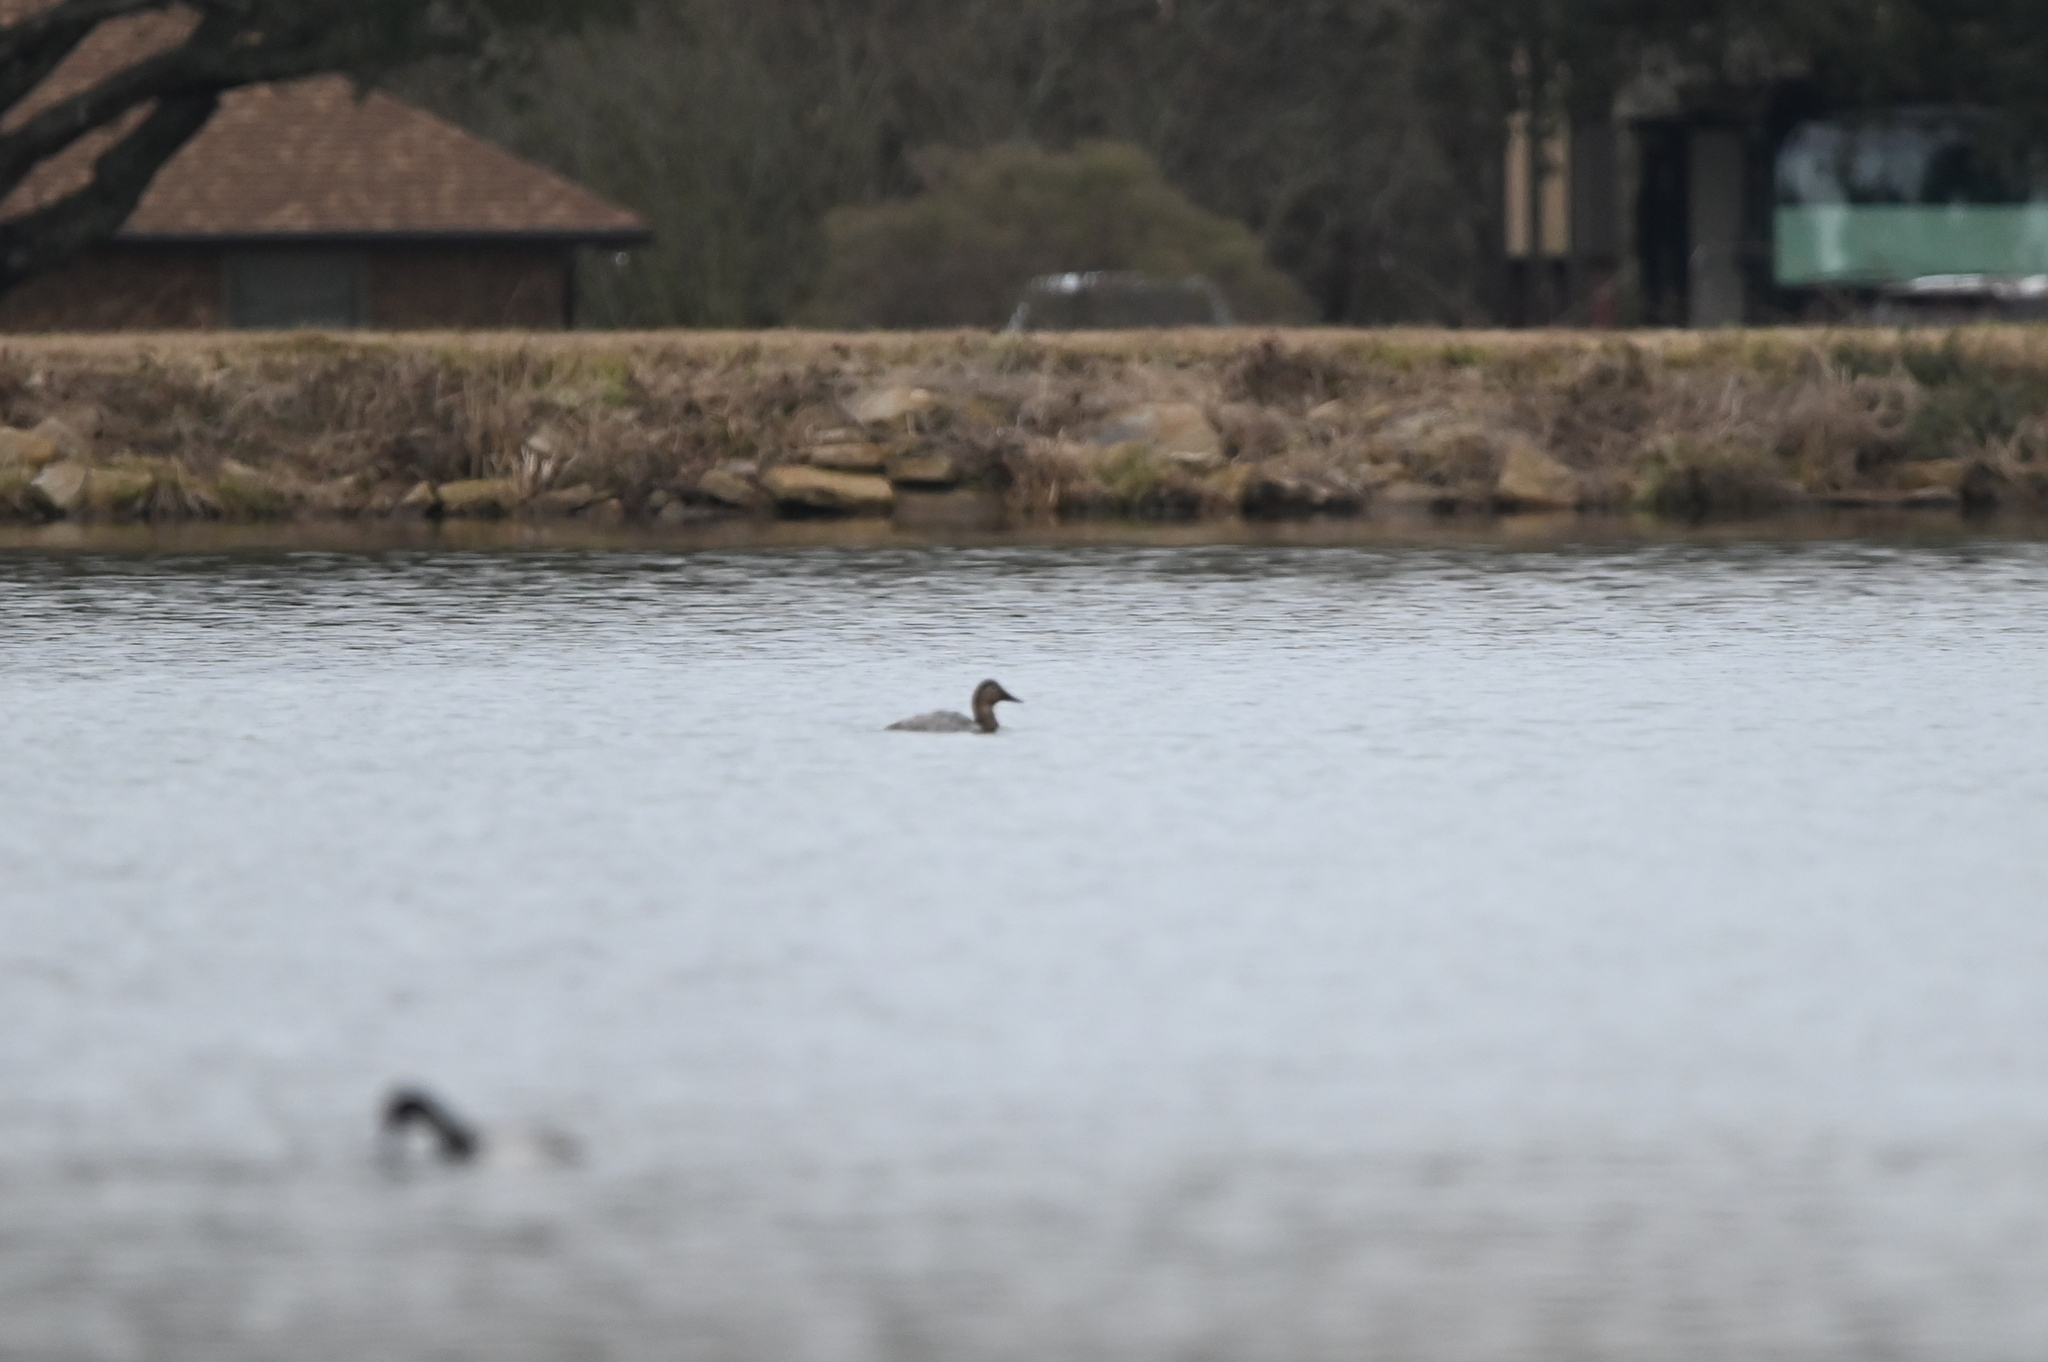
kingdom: Animalia
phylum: Chordata
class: Aves
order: Anseriformes
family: Anatidae
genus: Aythya
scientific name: Aythya valisineria
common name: Canvasback
